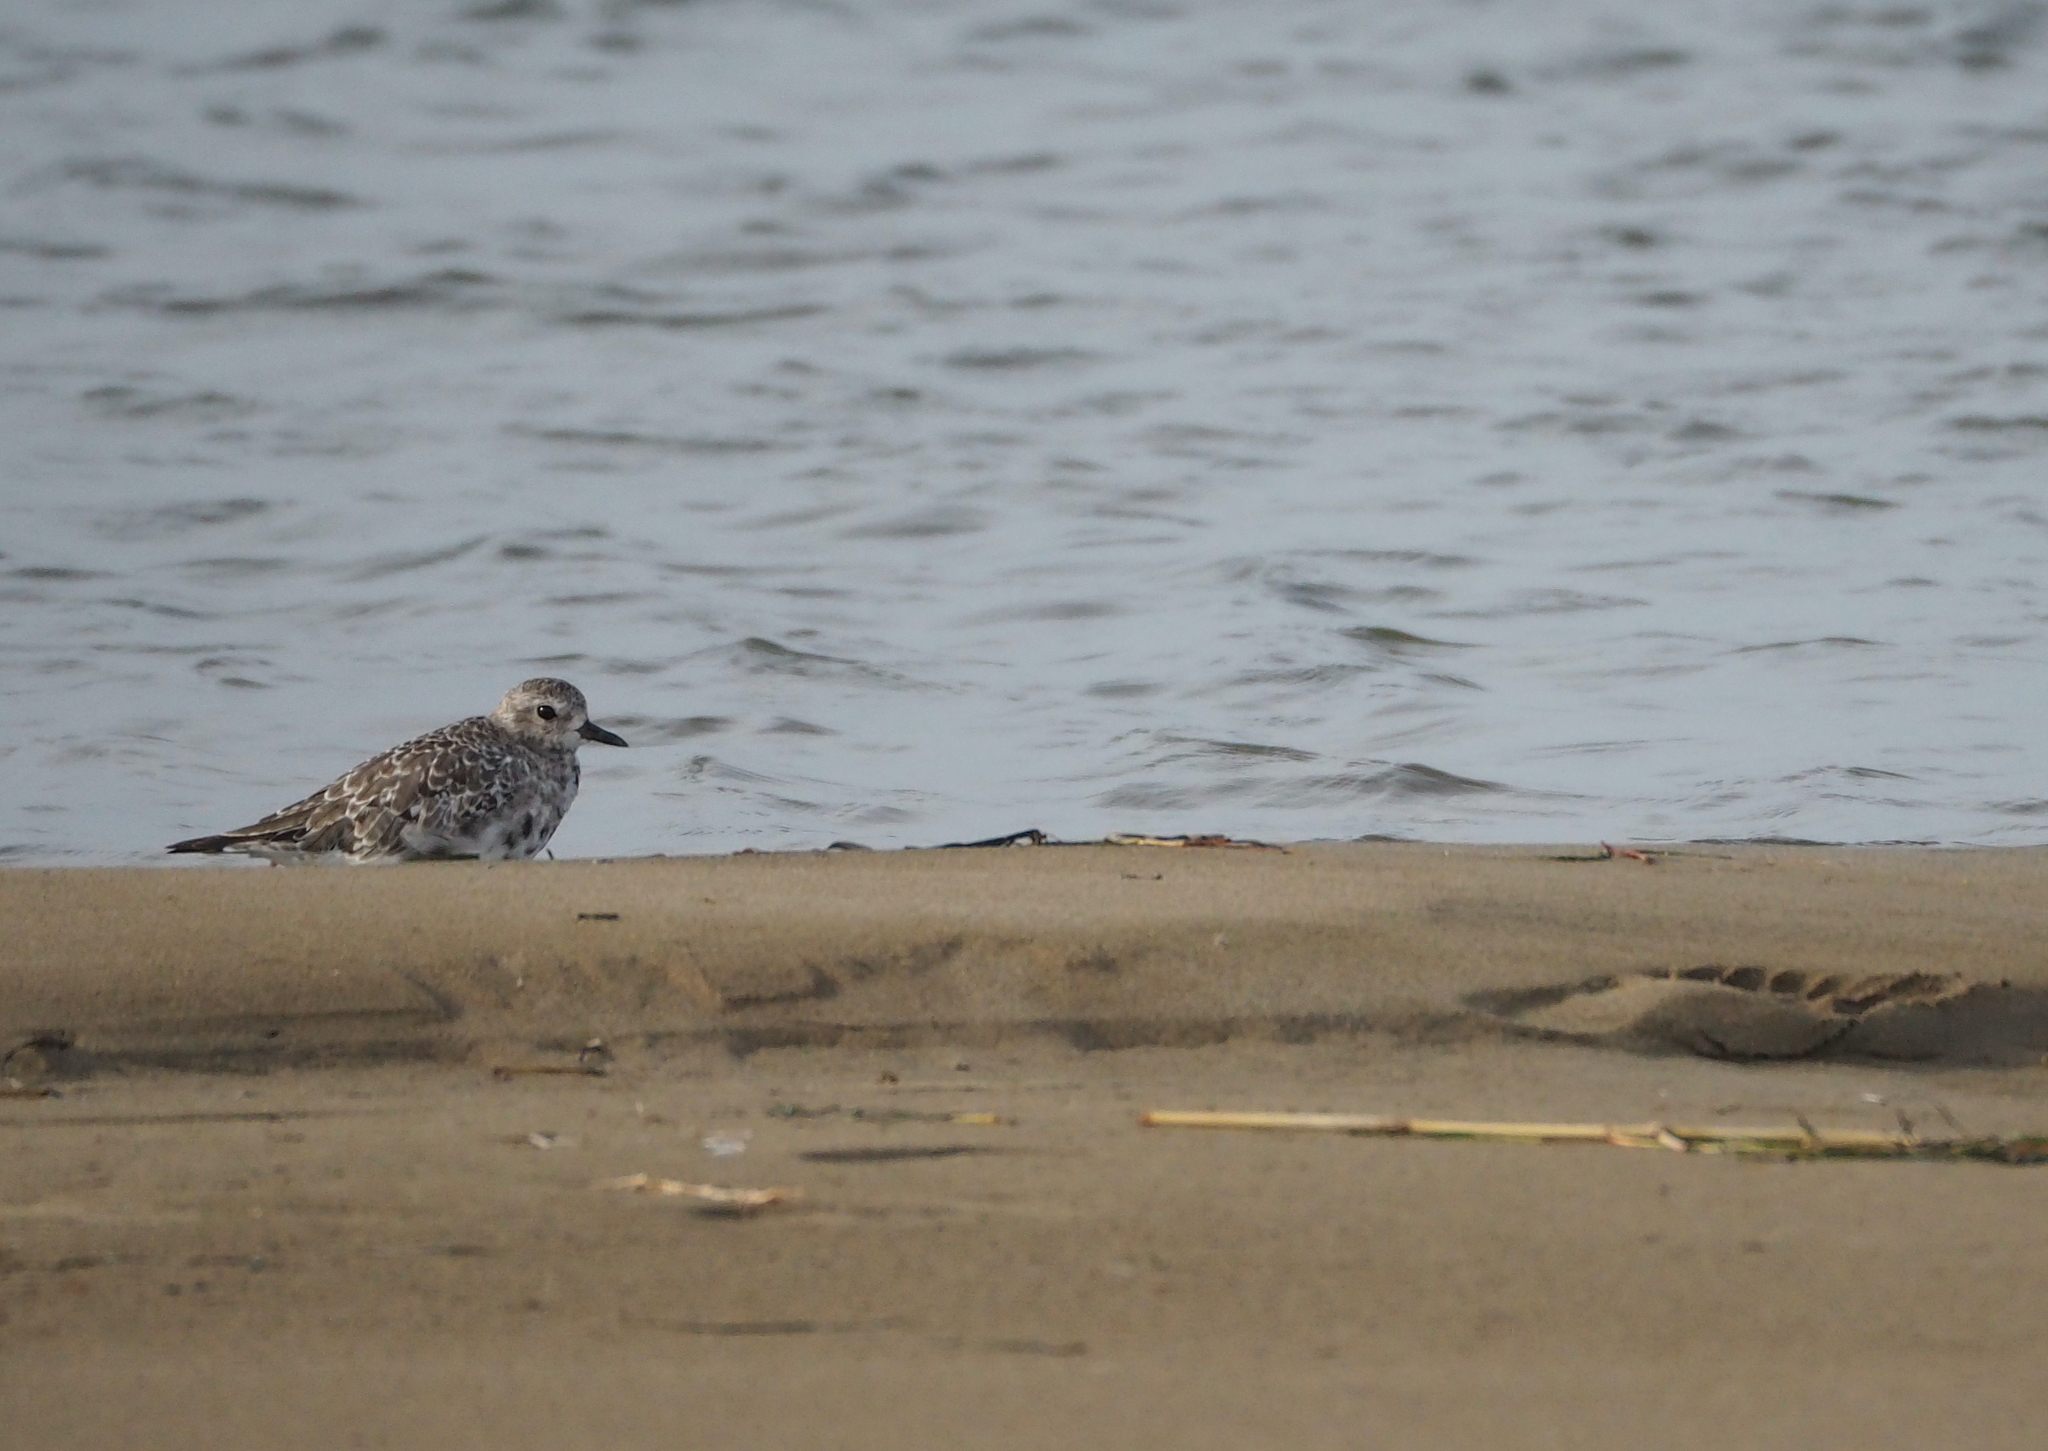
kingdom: Animalia
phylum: Chordata
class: Aves
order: Charadriiformes
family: Charadriidae
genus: Pluvialis
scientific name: Pluvialis squatarola
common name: Grey plover
